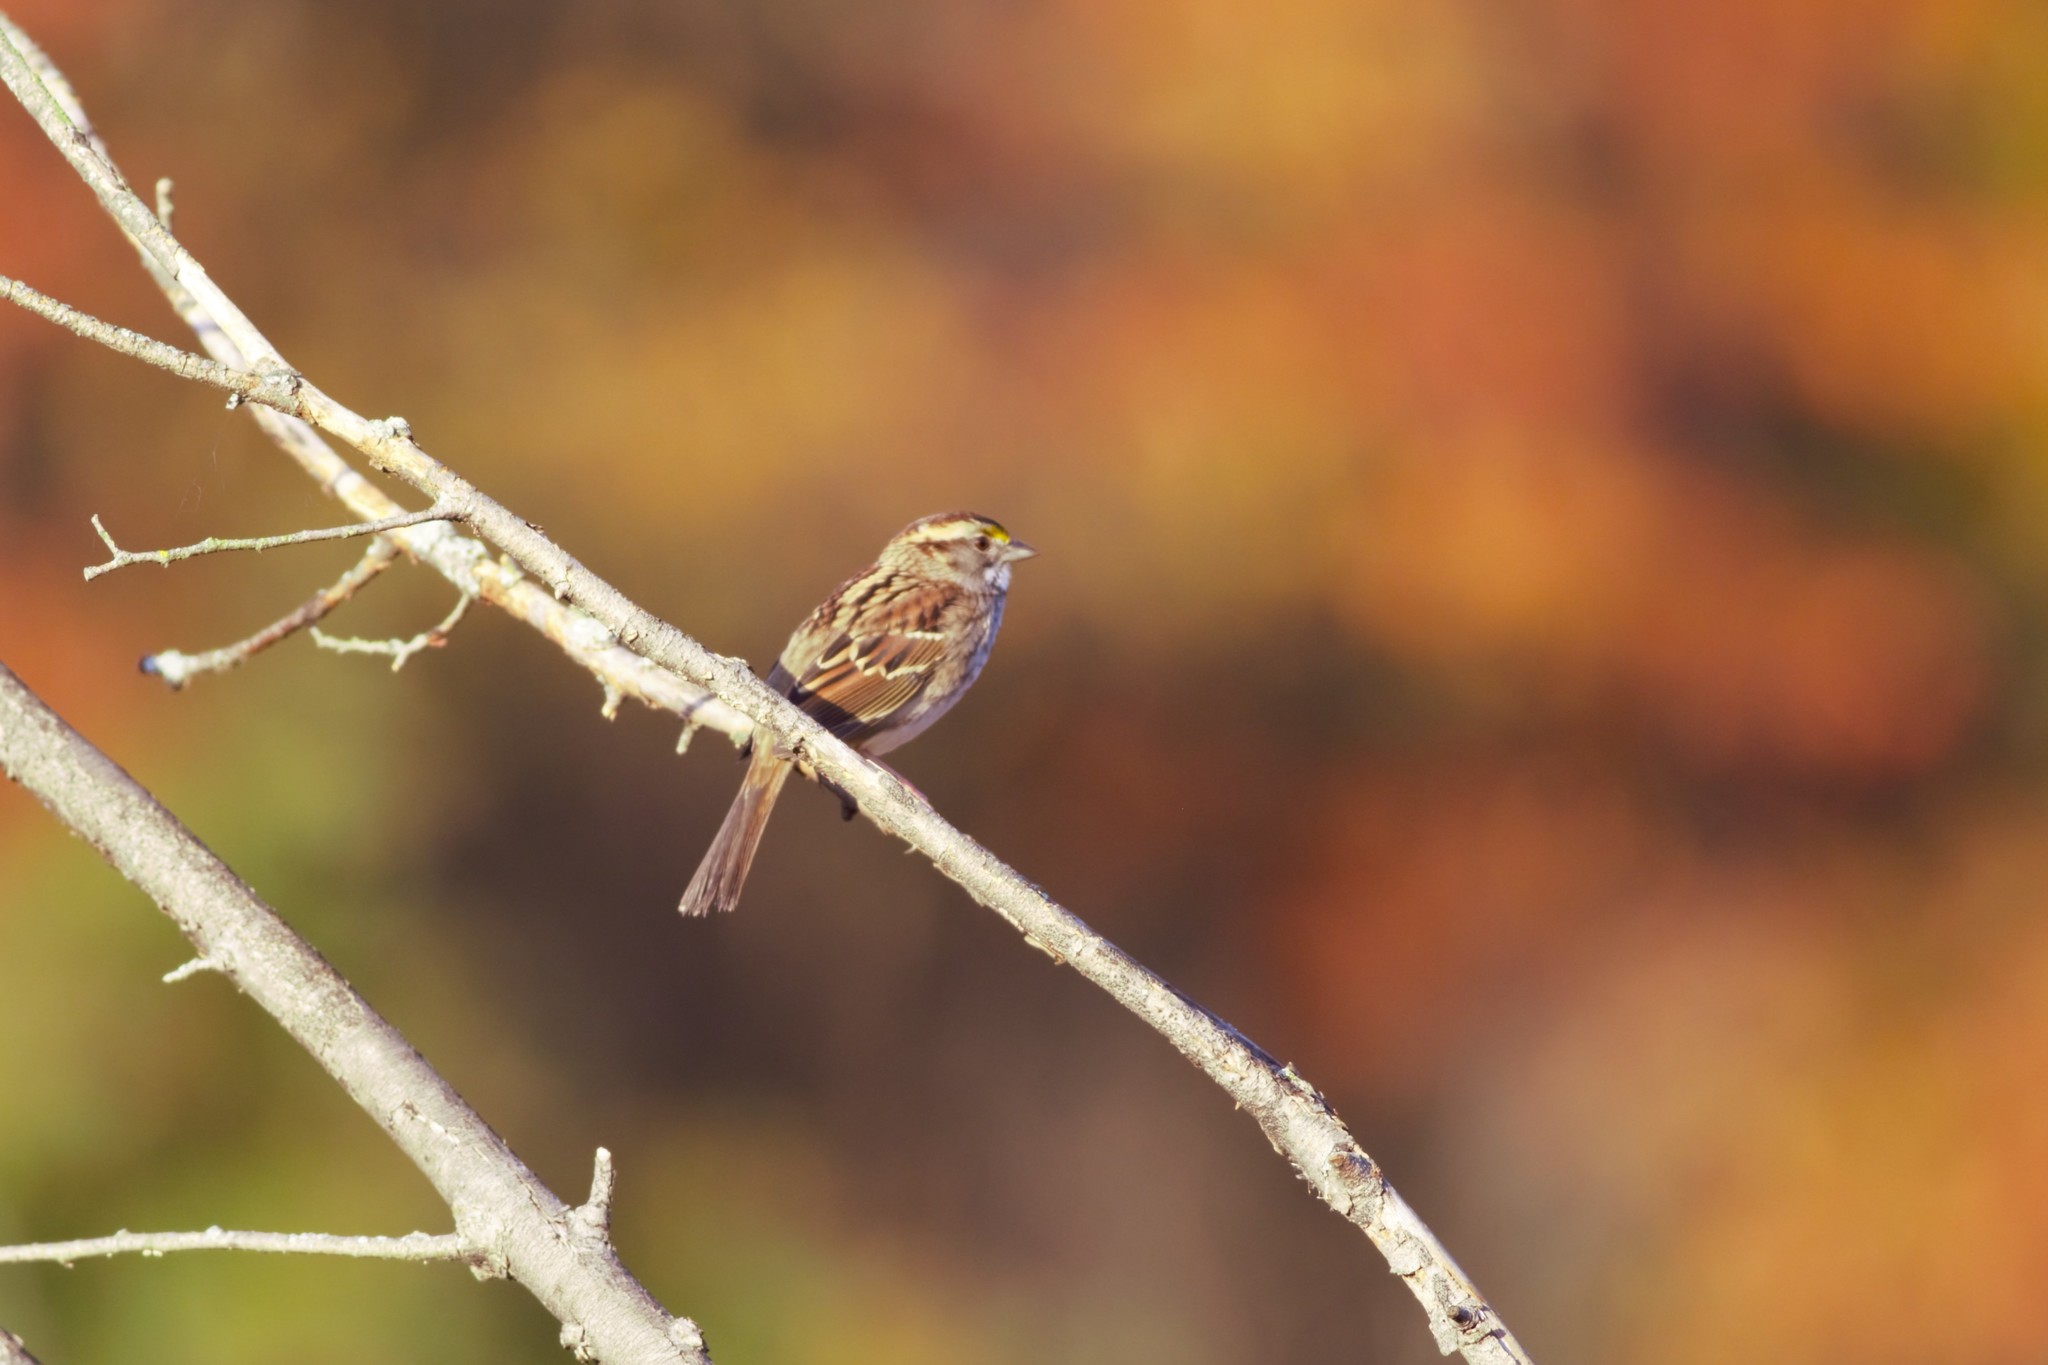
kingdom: Animalia
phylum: Chordata
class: Aves
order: Passeriformes
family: Passerellidae
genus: Zonotrichia
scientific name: Zonotrichia albicollis
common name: White-throated sparrow
